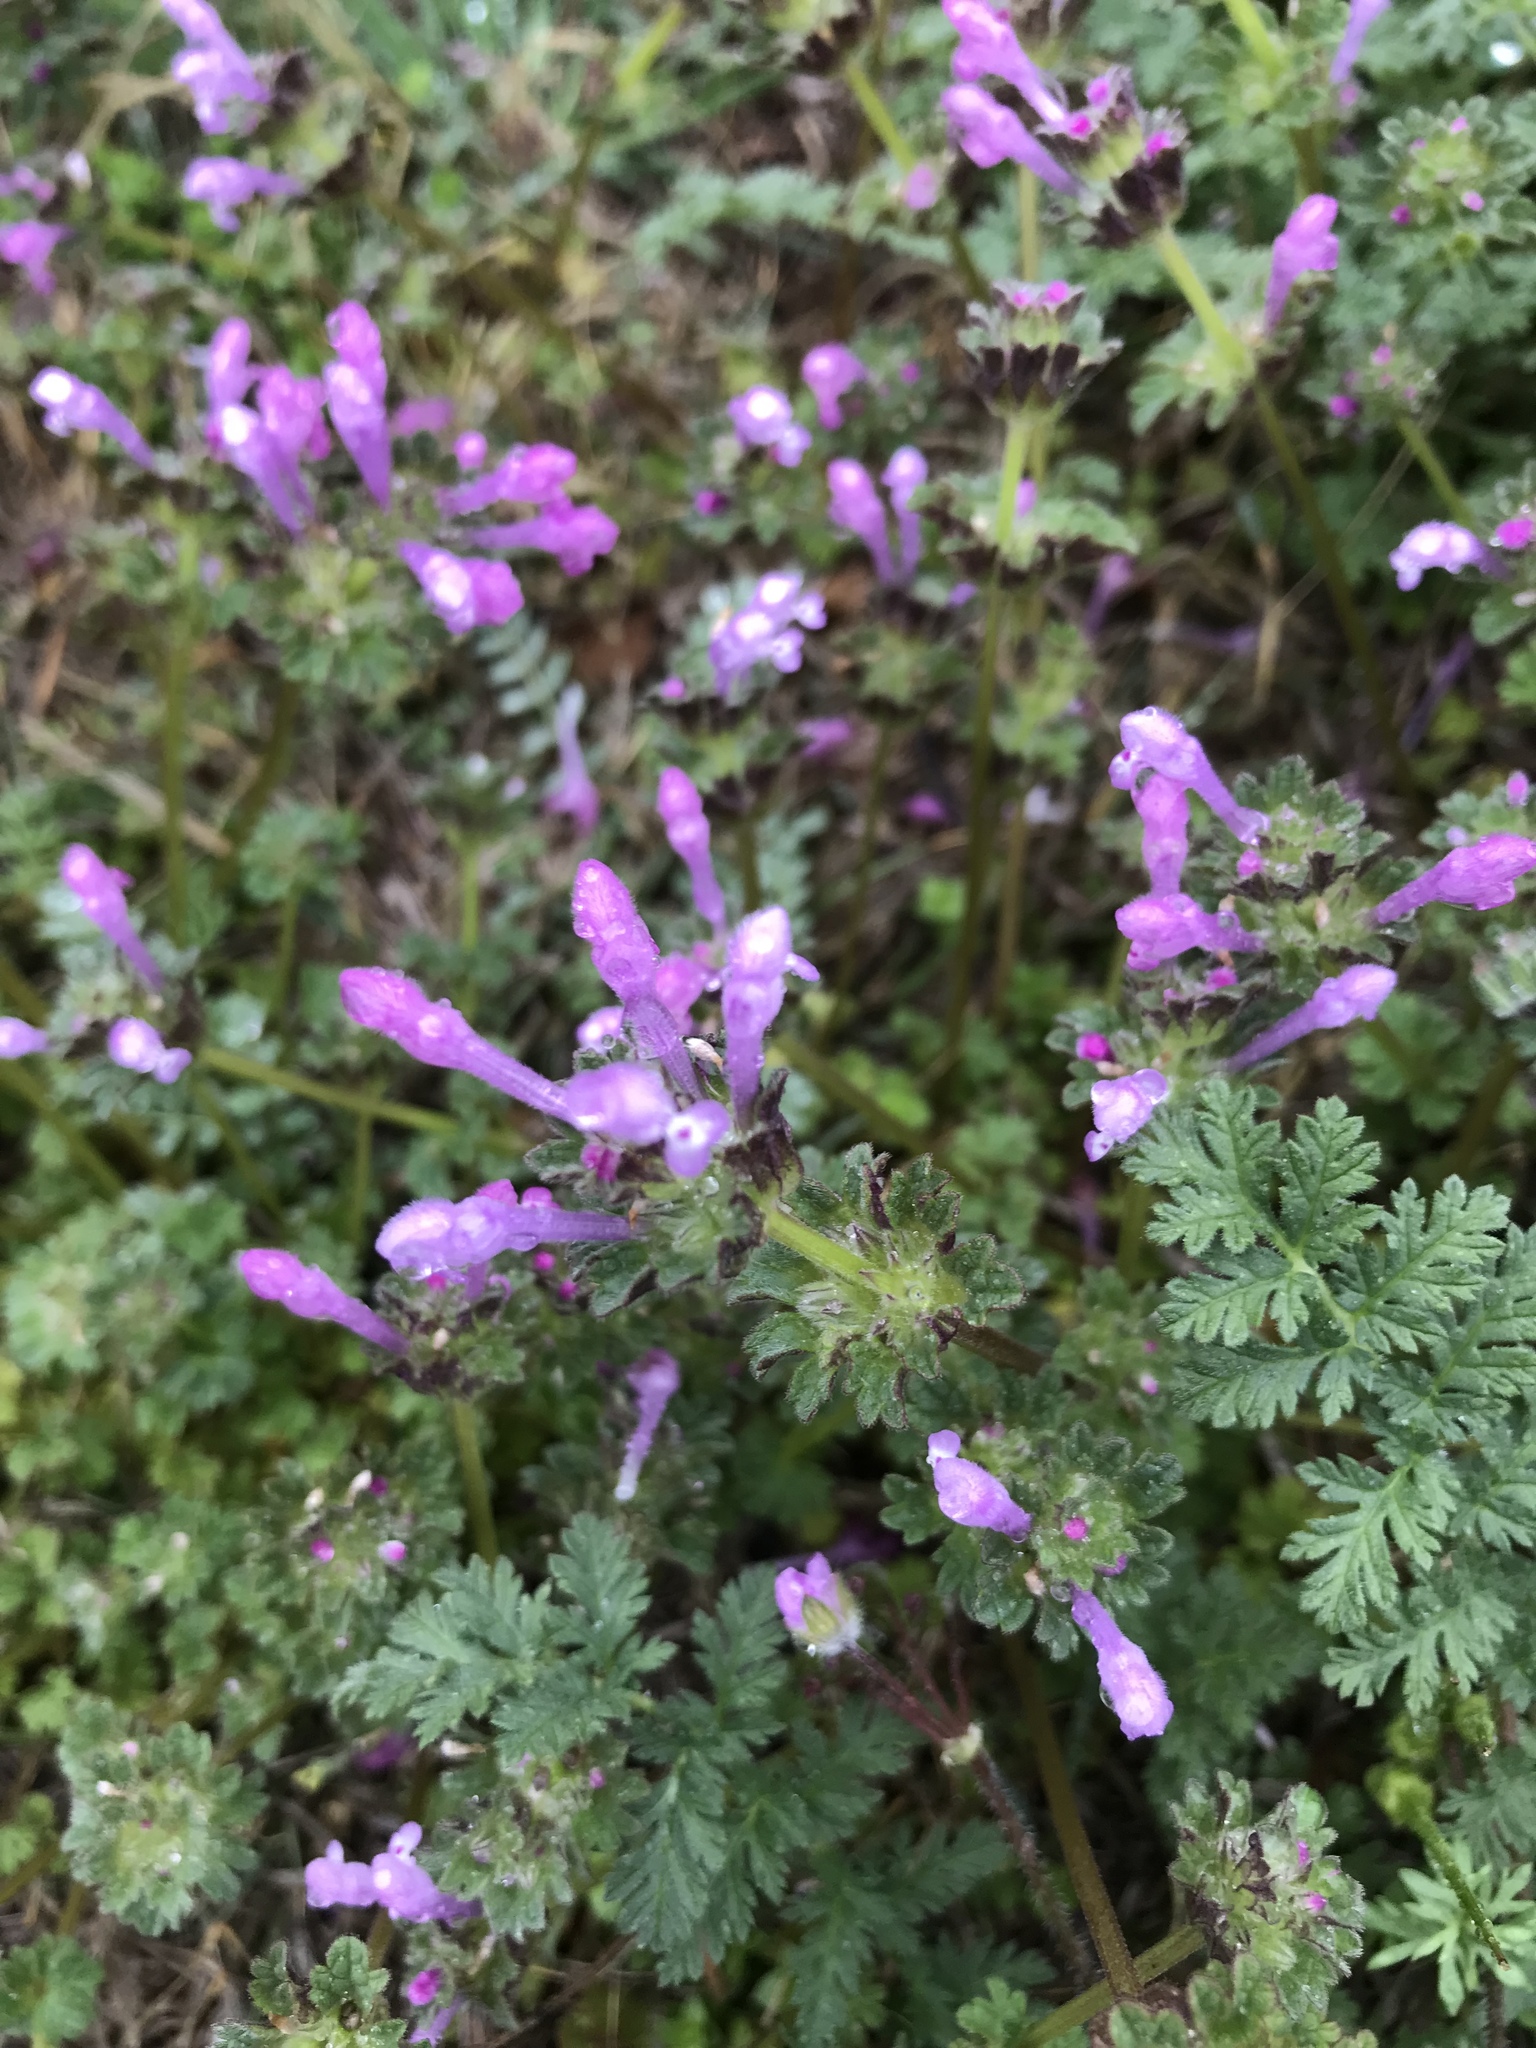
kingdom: Plantae
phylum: Tracheophyta
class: Magnoliopsida
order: Lamiales
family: Lamiaceae
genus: Lamium
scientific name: Lamium amplexicaule
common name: Henbit dead-nettle
